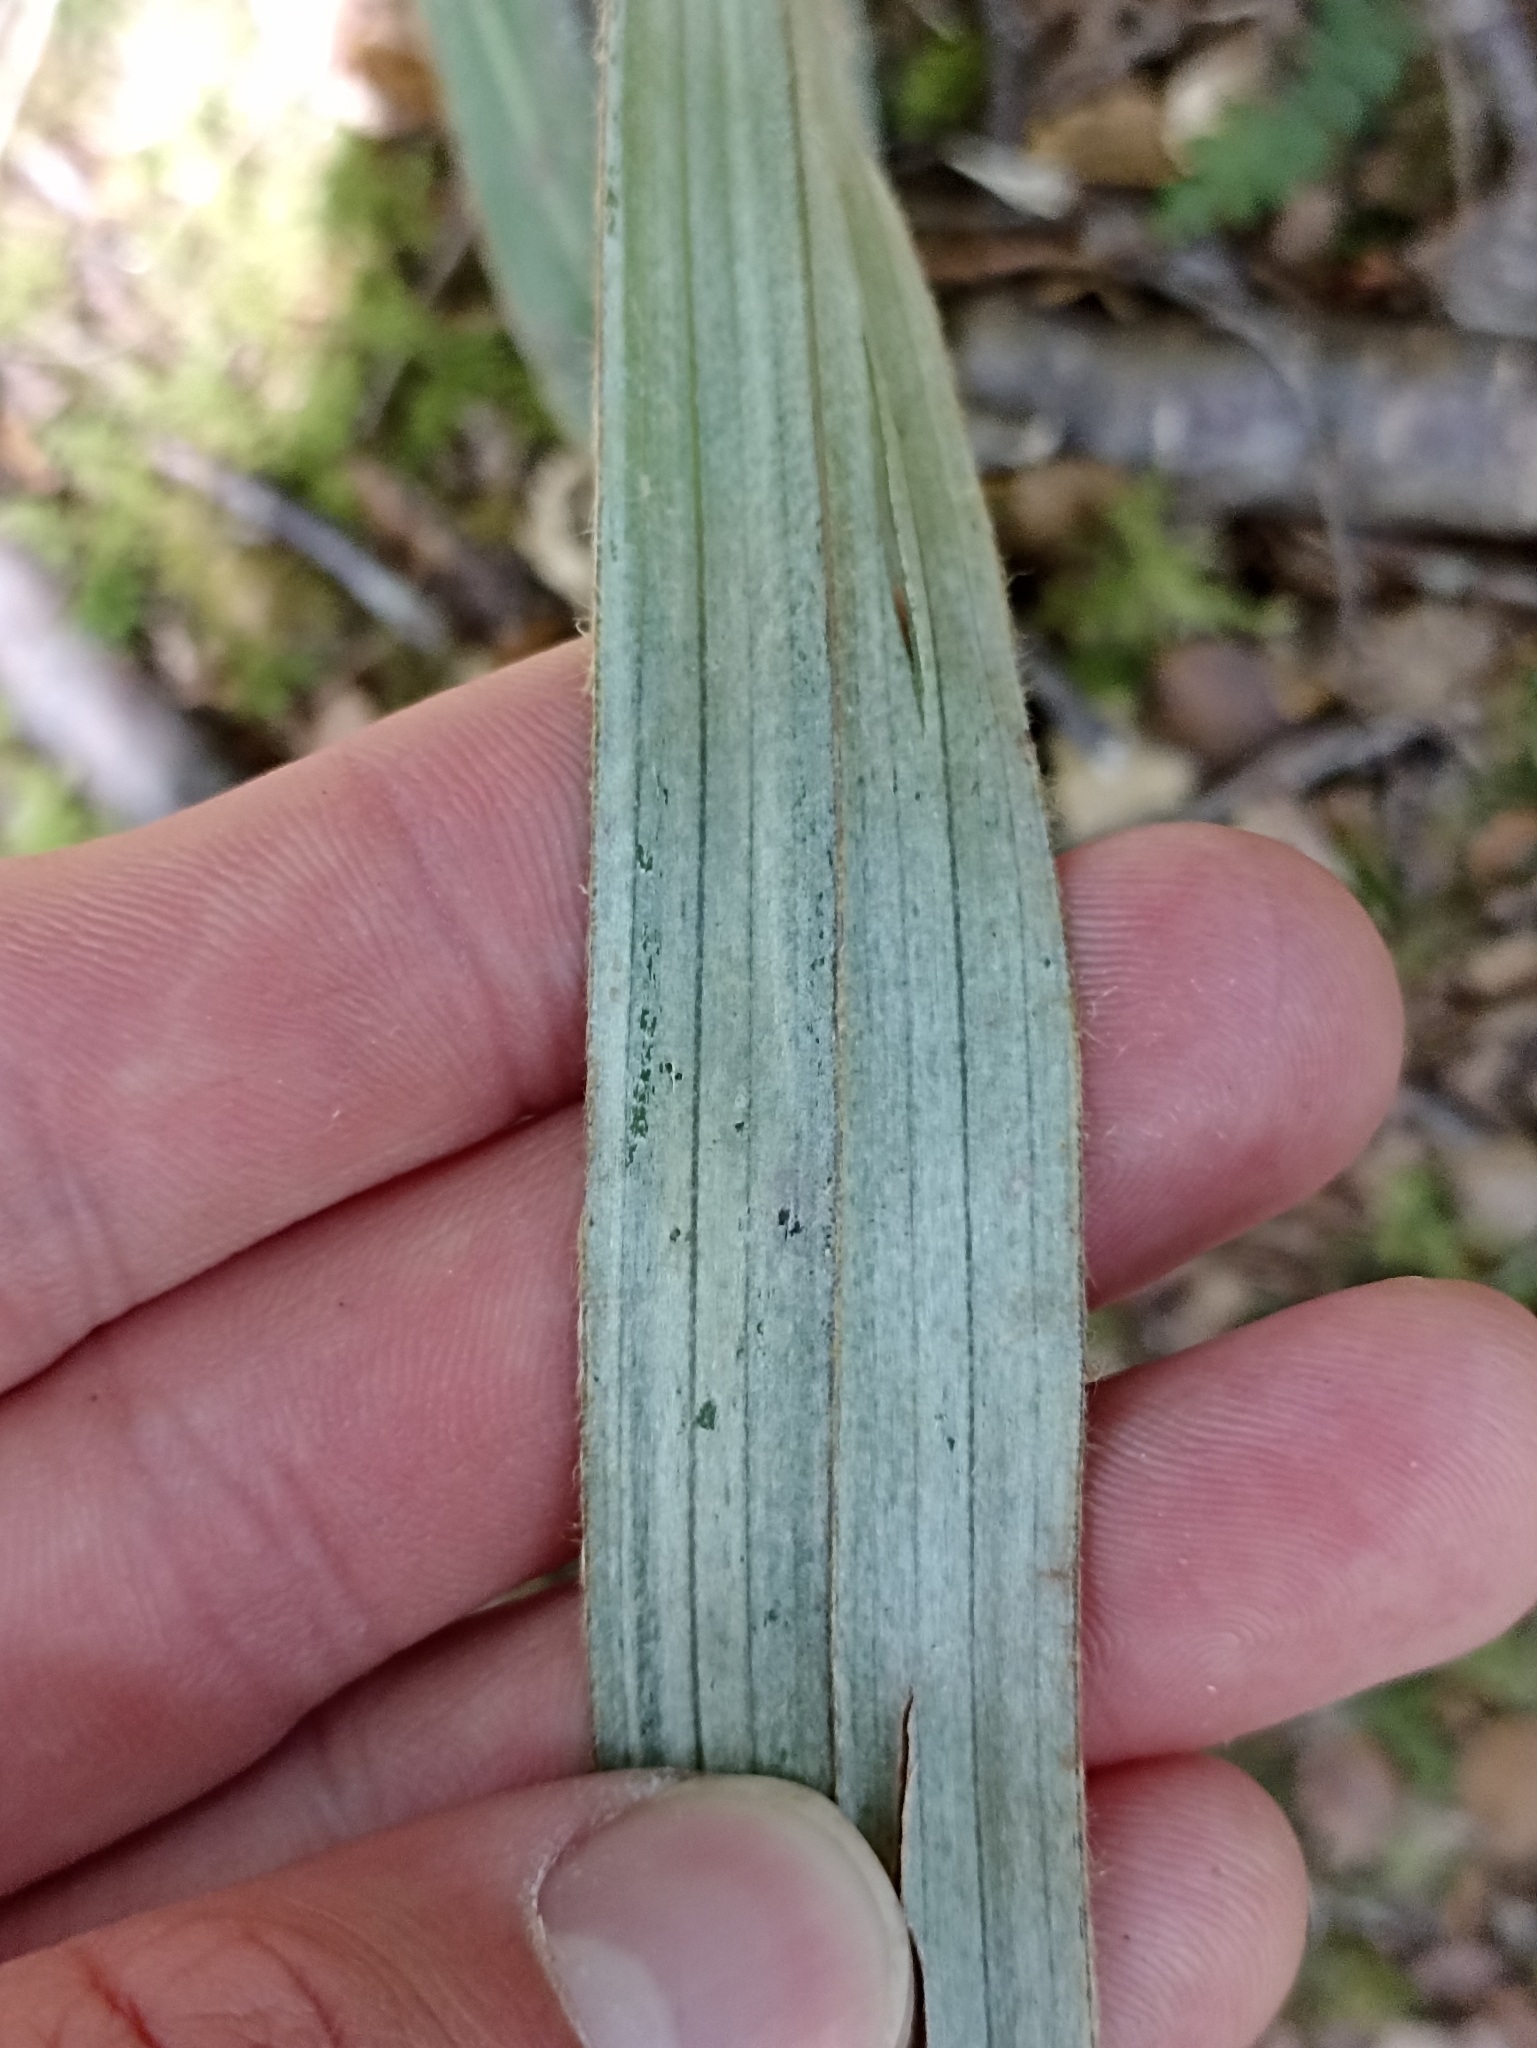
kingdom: Plantae
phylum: Tracheophyta
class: Liliopsida
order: Asparagales
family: Asteliaceae
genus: Astelia
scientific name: Astelia fragrans
